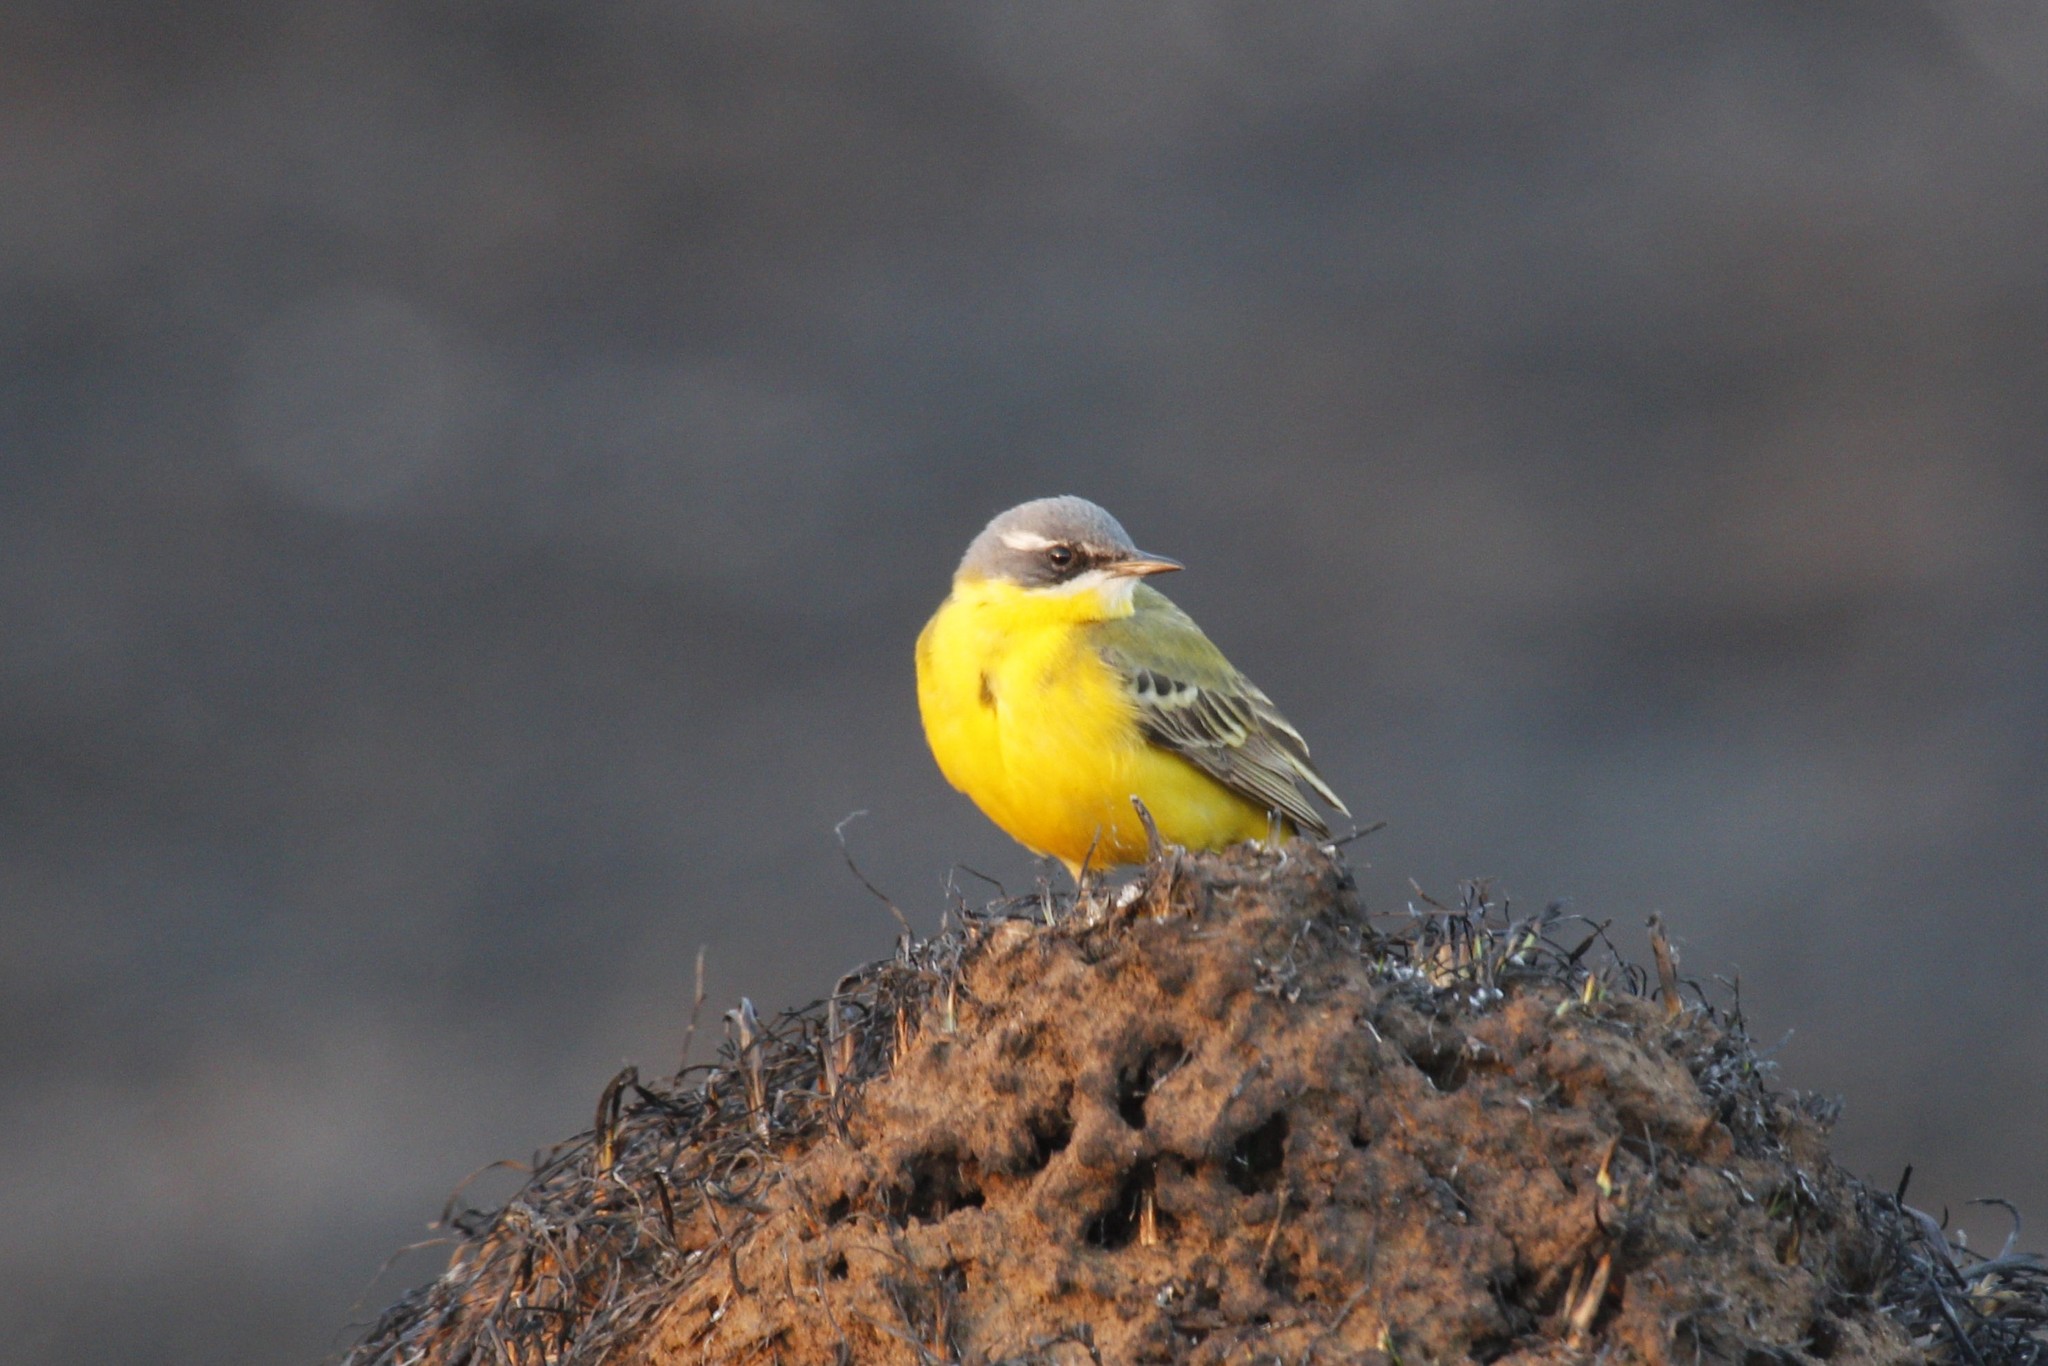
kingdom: Animalia
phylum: Chordata
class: Aves
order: Passeriformes
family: Motacillidae
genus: Motacilla
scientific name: Motacilla flava
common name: Western yellow wagtail
